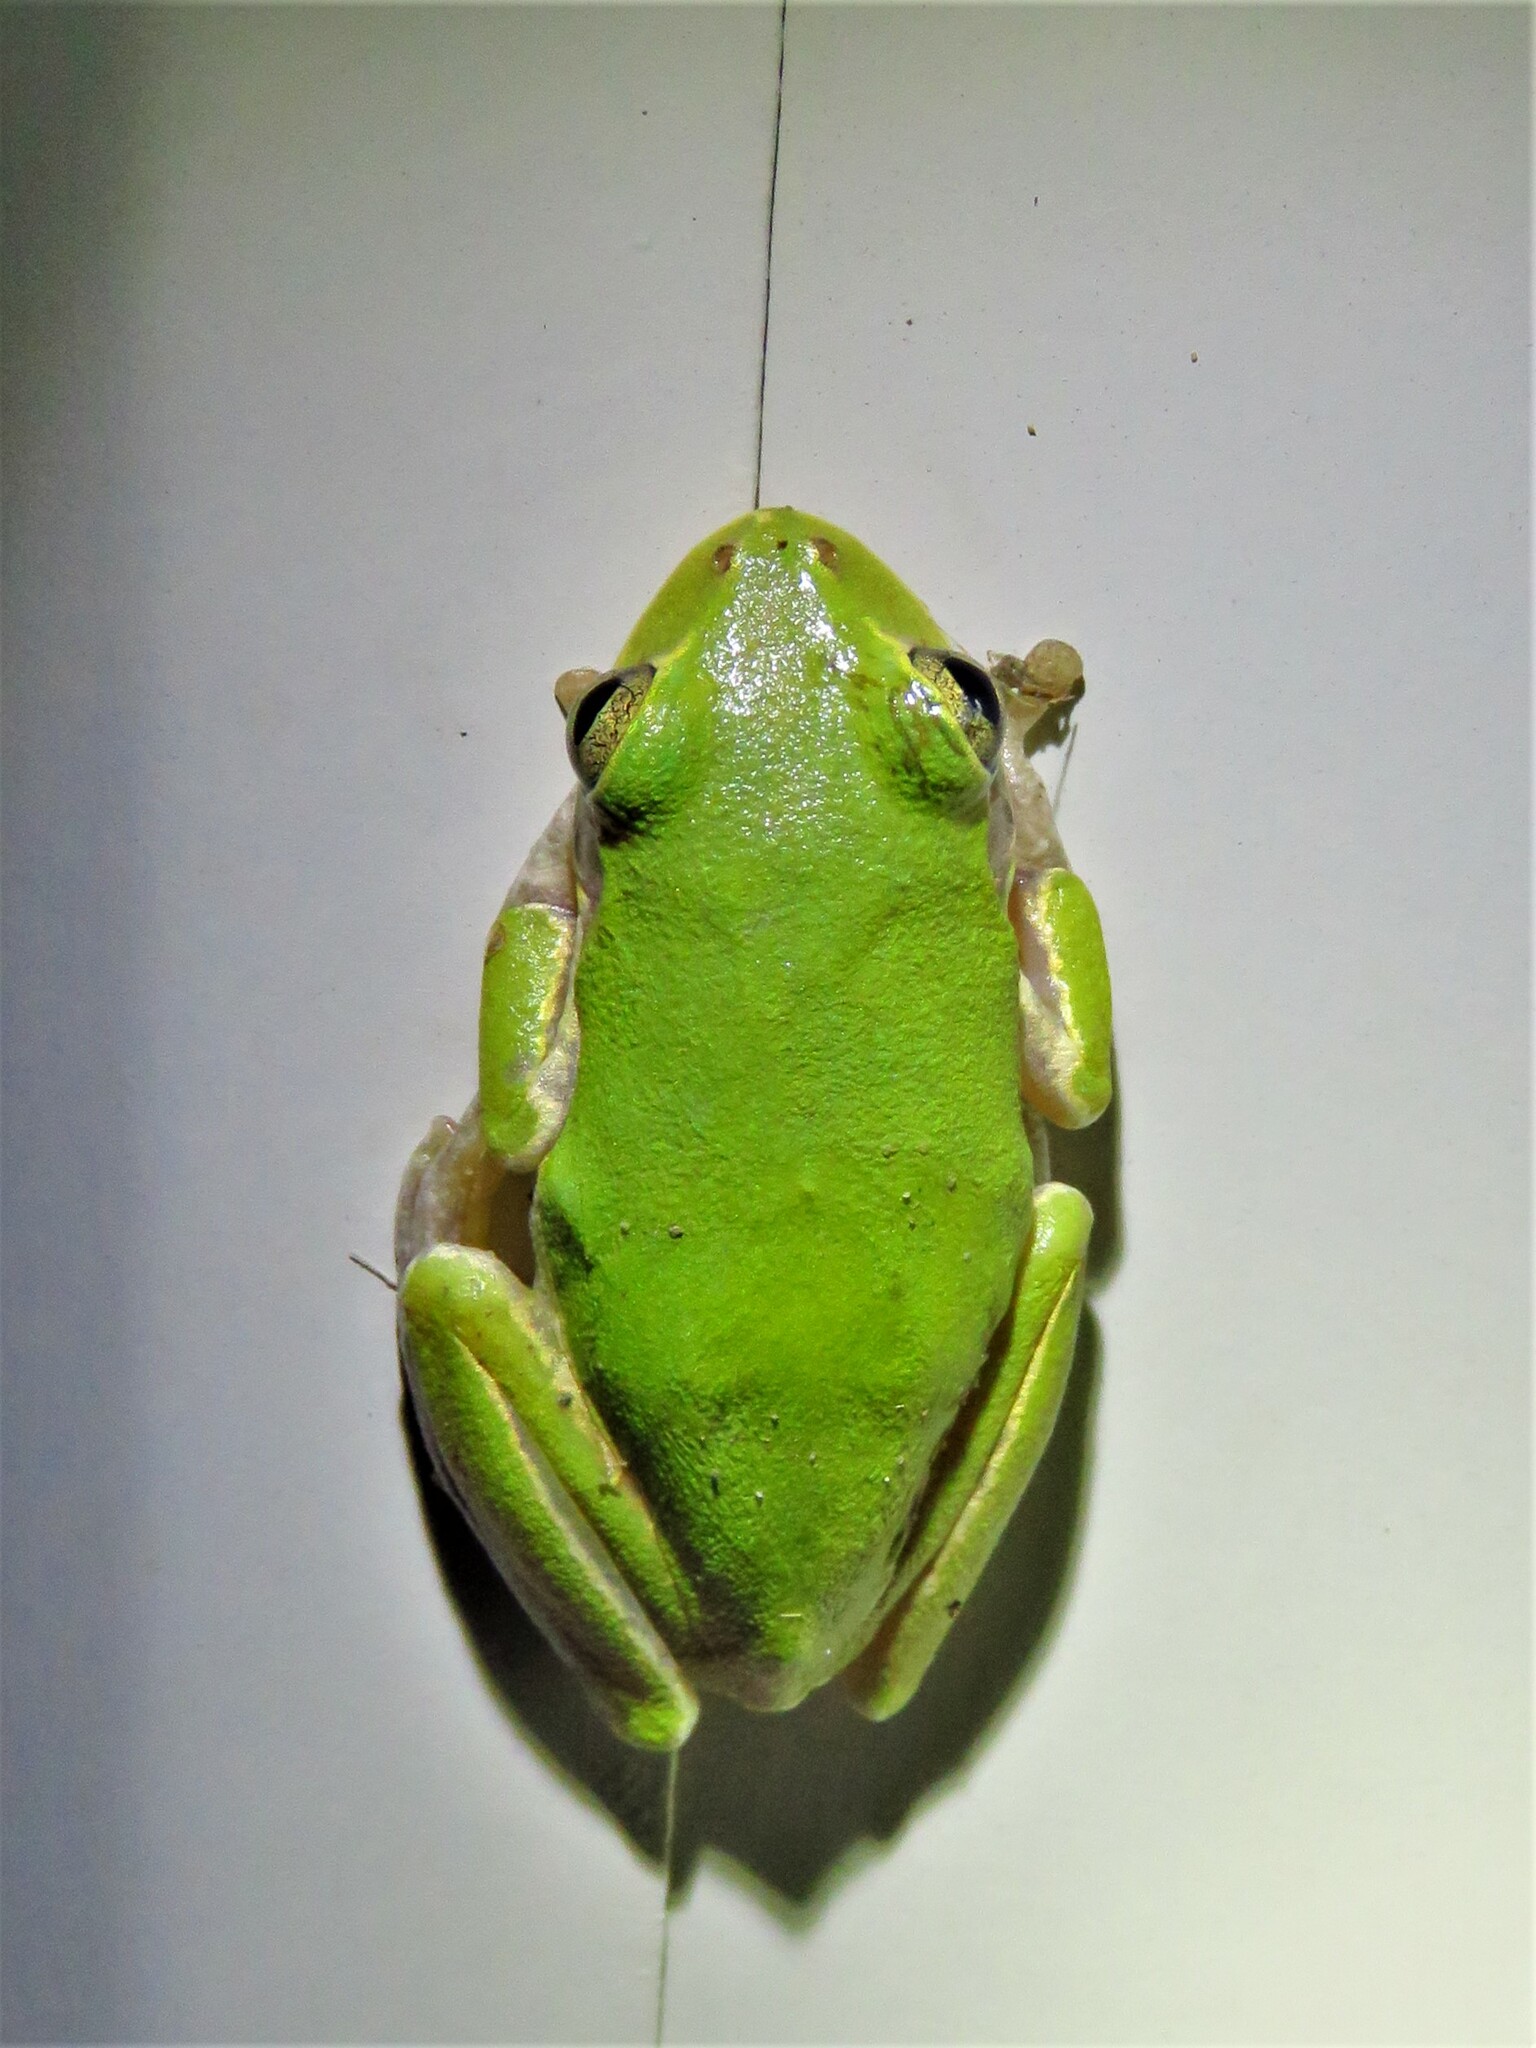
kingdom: Animalia
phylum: Chordata
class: Amphibia
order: Anura
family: Hylidae
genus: Dryophytes
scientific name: Dryophytes squirellus
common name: Squirrel treefrog
